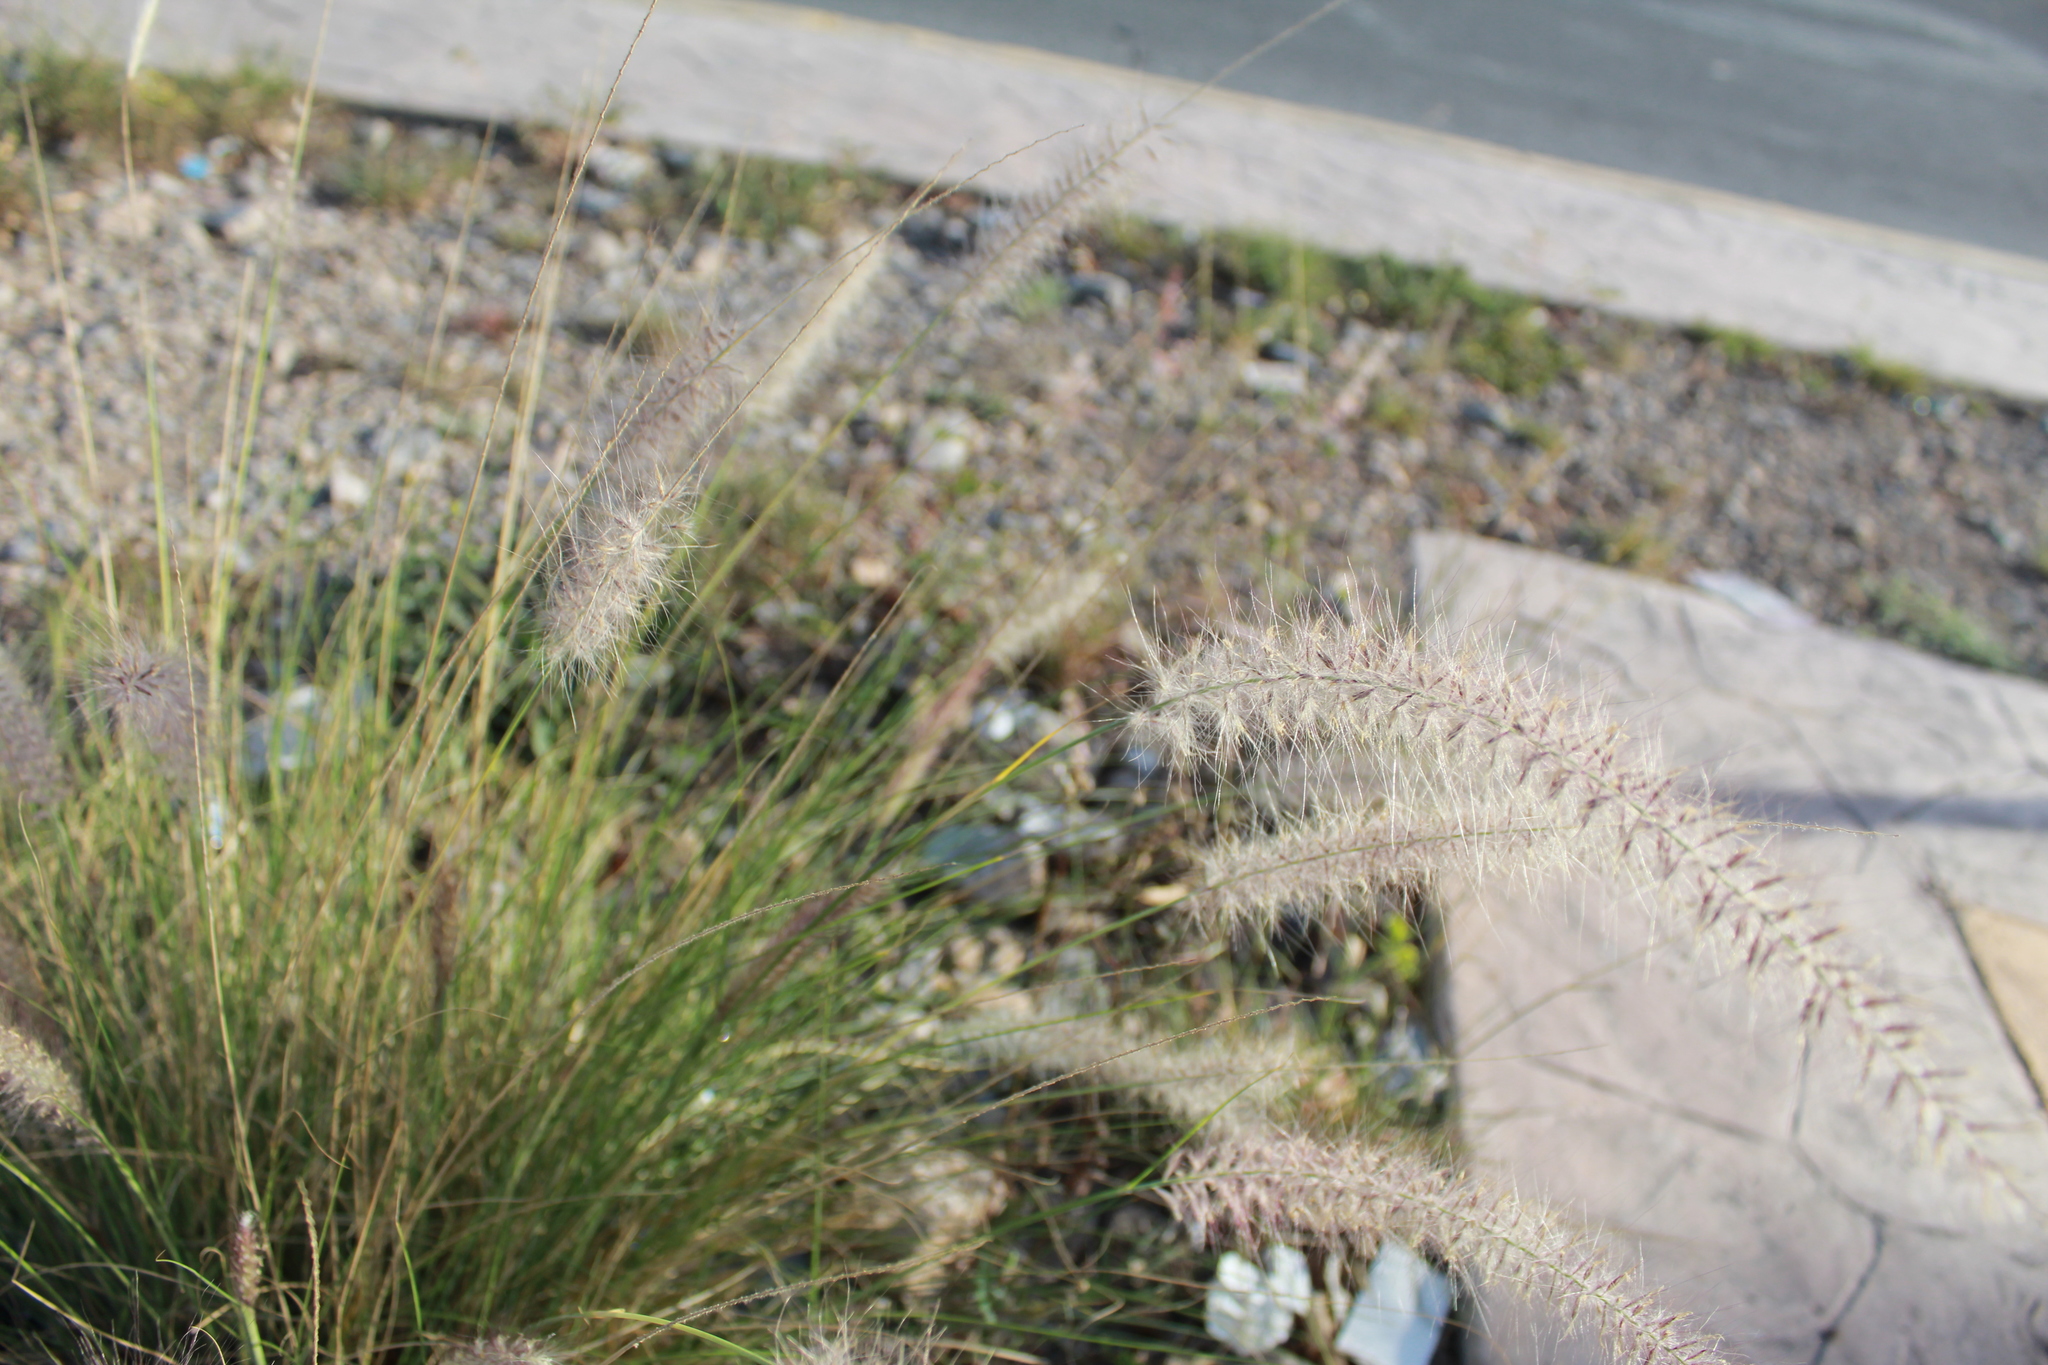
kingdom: Plantae
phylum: Tracheophyta
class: Liliopsida
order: Poales
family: Poaceae
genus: Cenchrus
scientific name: Cenchrus setaceus
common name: Crimson fountaingrass
